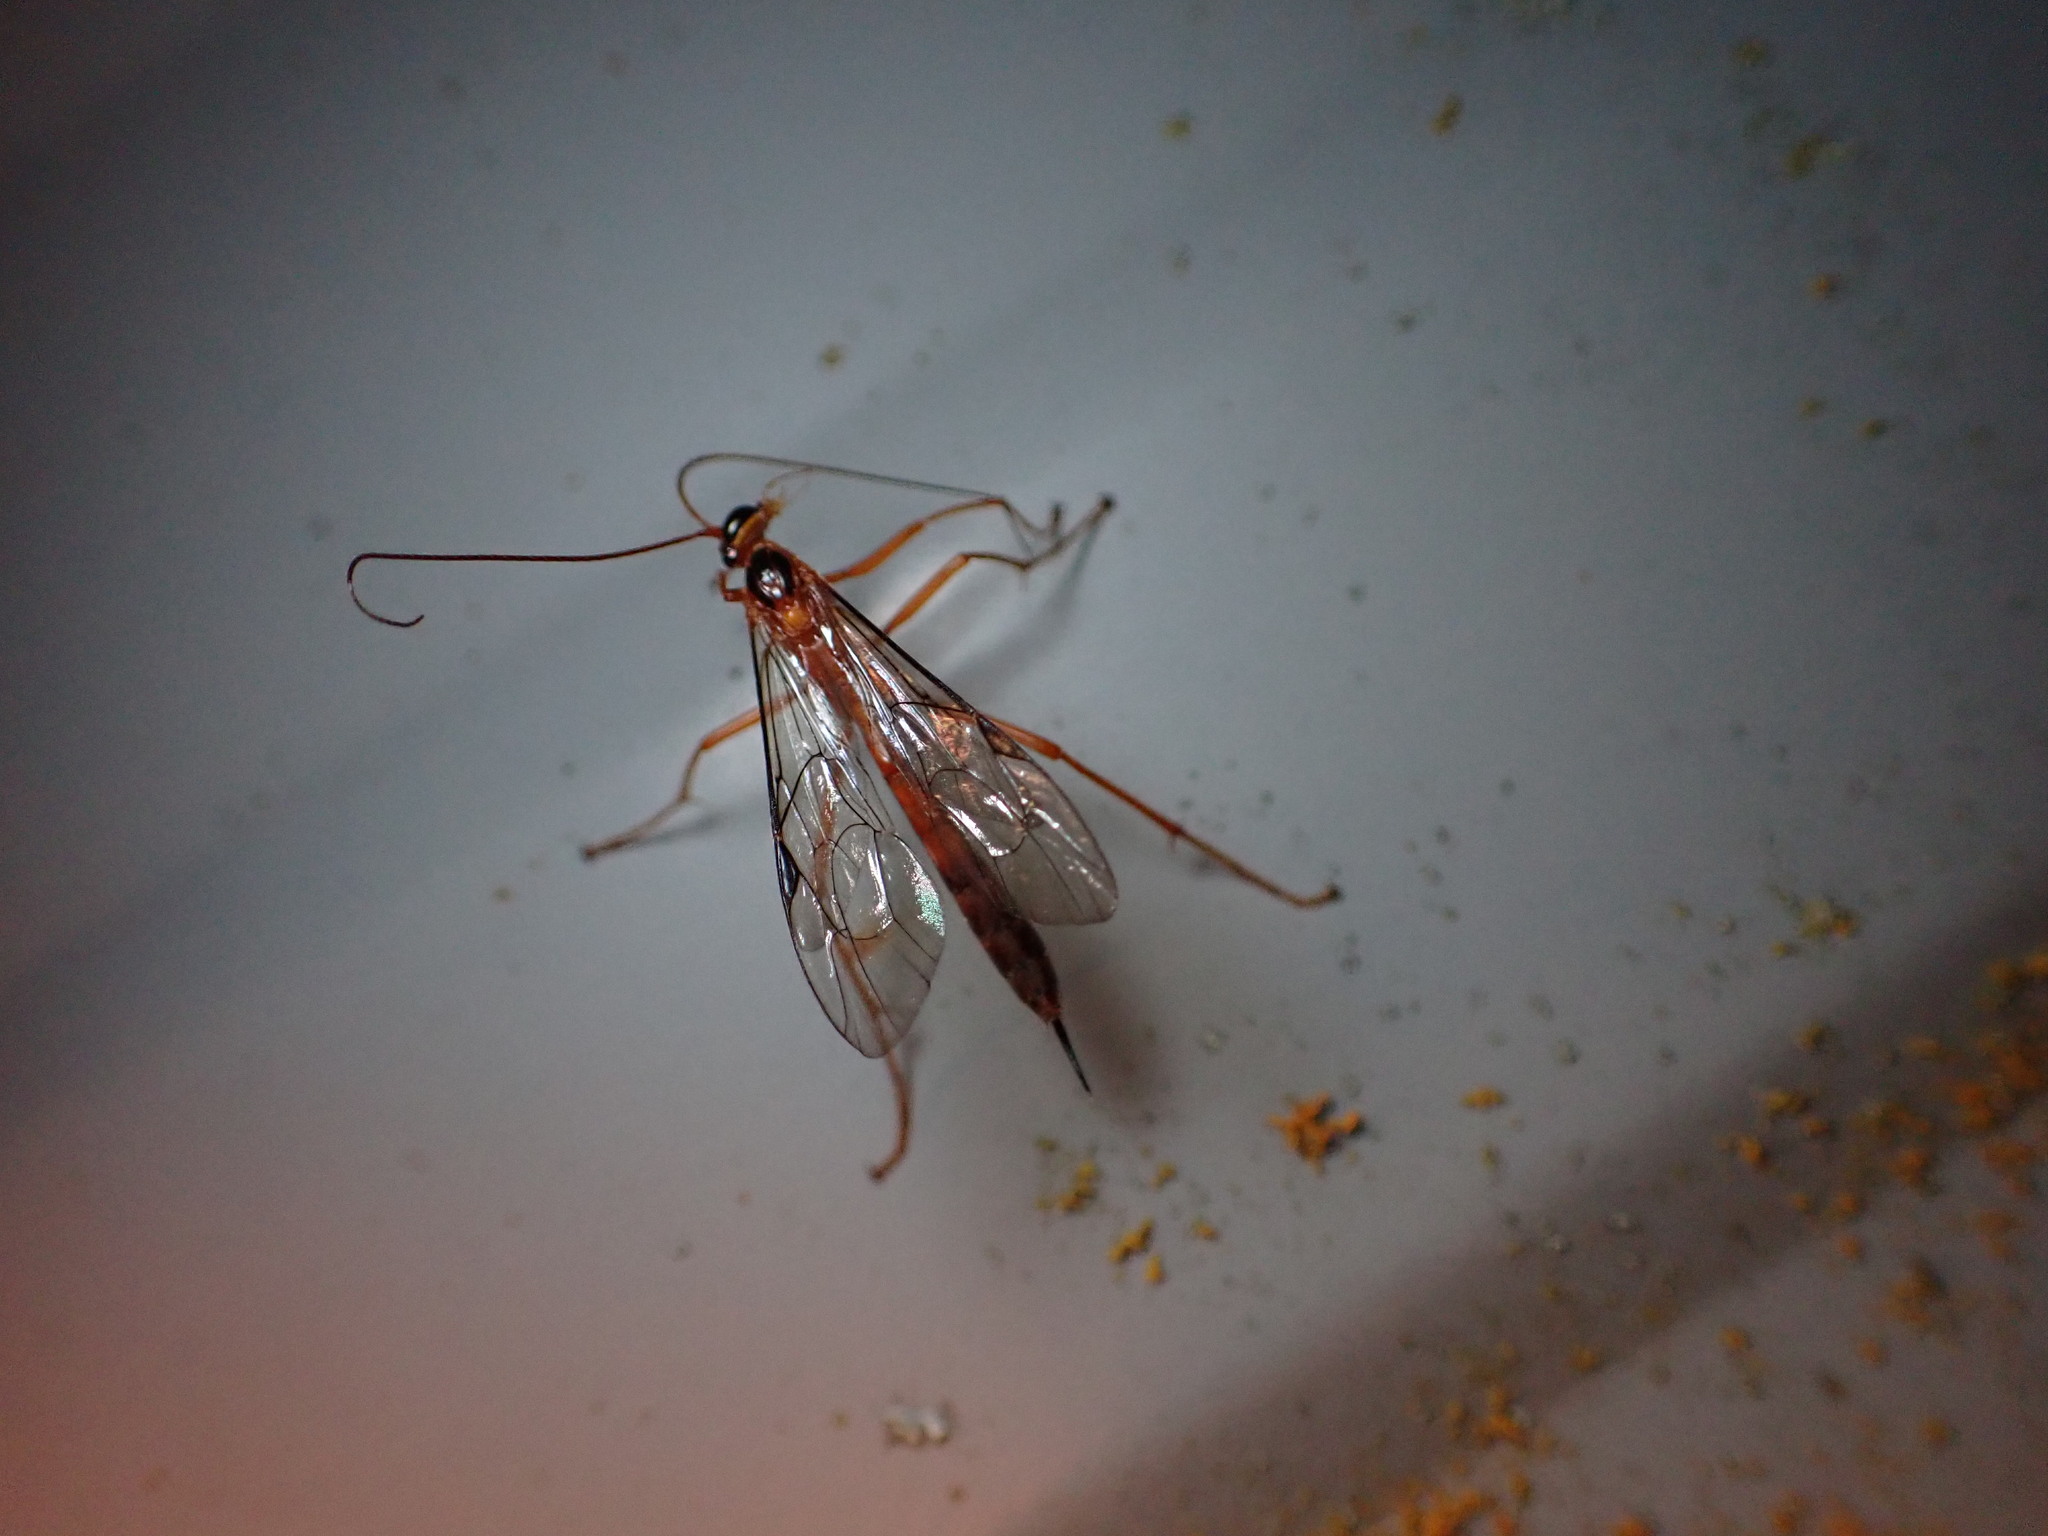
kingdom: Animalia
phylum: Arthropoda
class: Insecta
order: Hymenoptera
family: Ichneumonidae
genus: Netelia
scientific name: Netelia ephippiata
